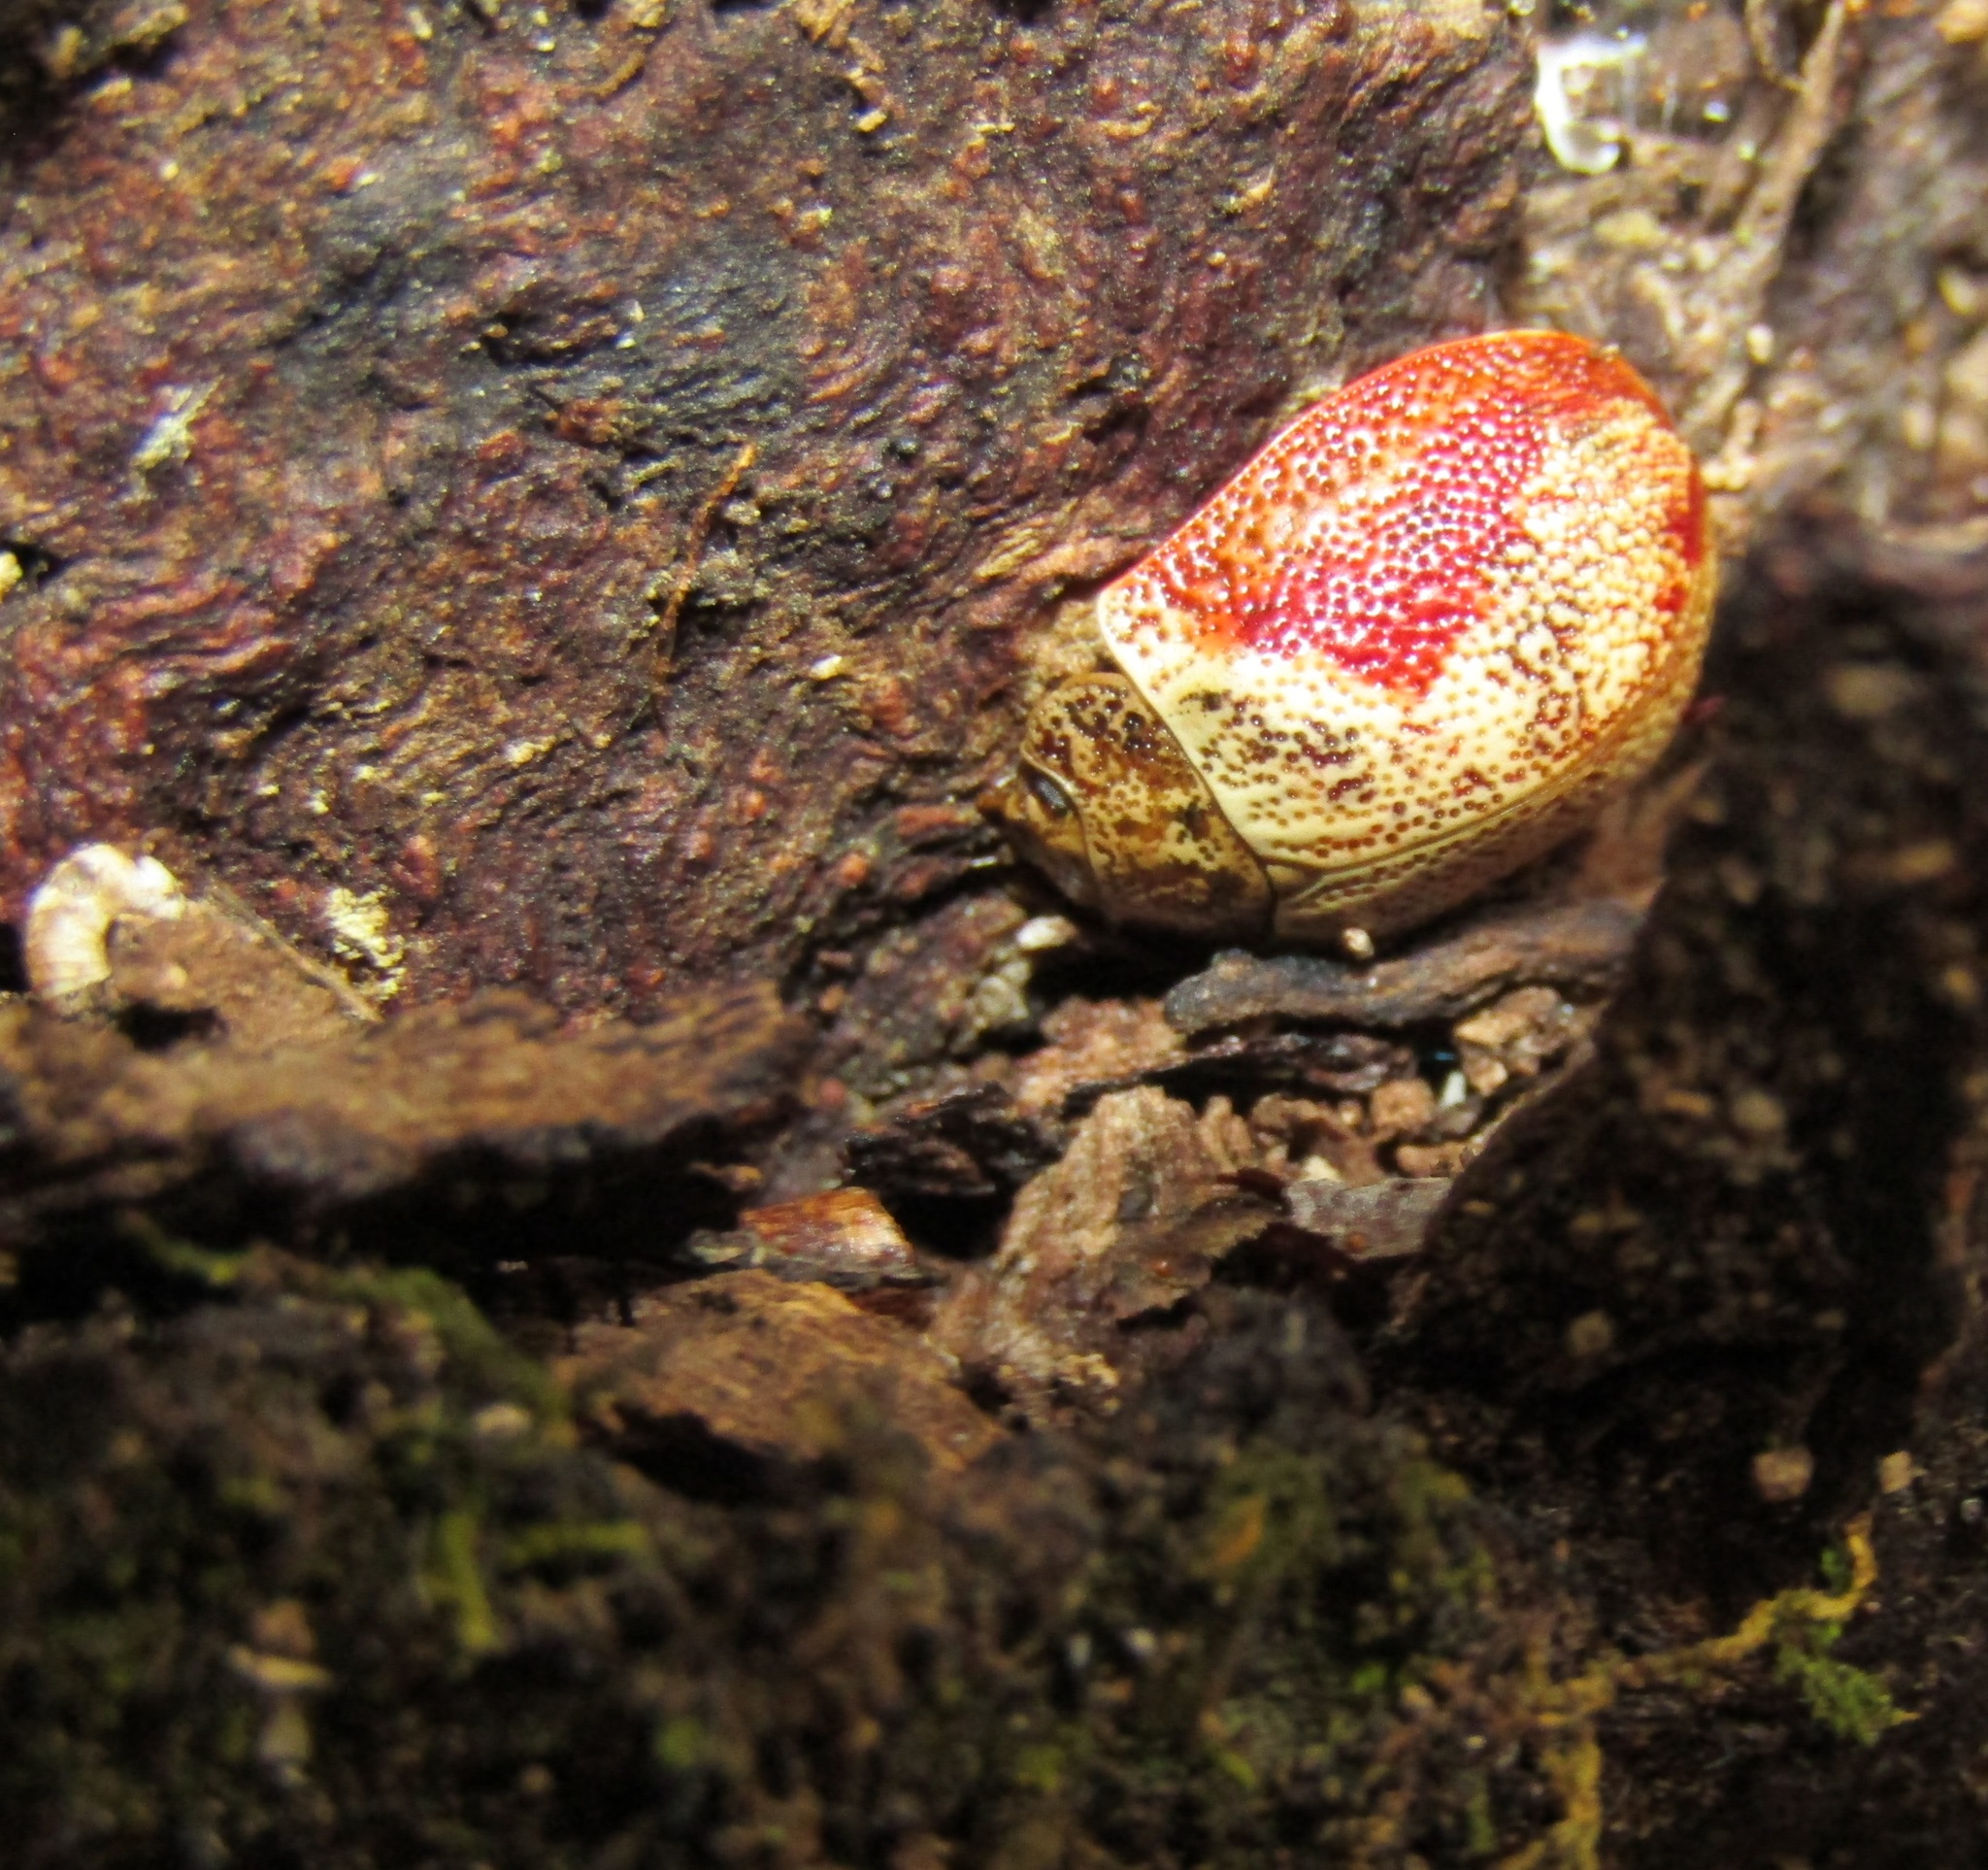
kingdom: Animalia
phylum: Arthropoda
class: Insecta
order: Coleoptera
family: Chrysomelidae
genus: Paropsis
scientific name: Paropsis charybdis
